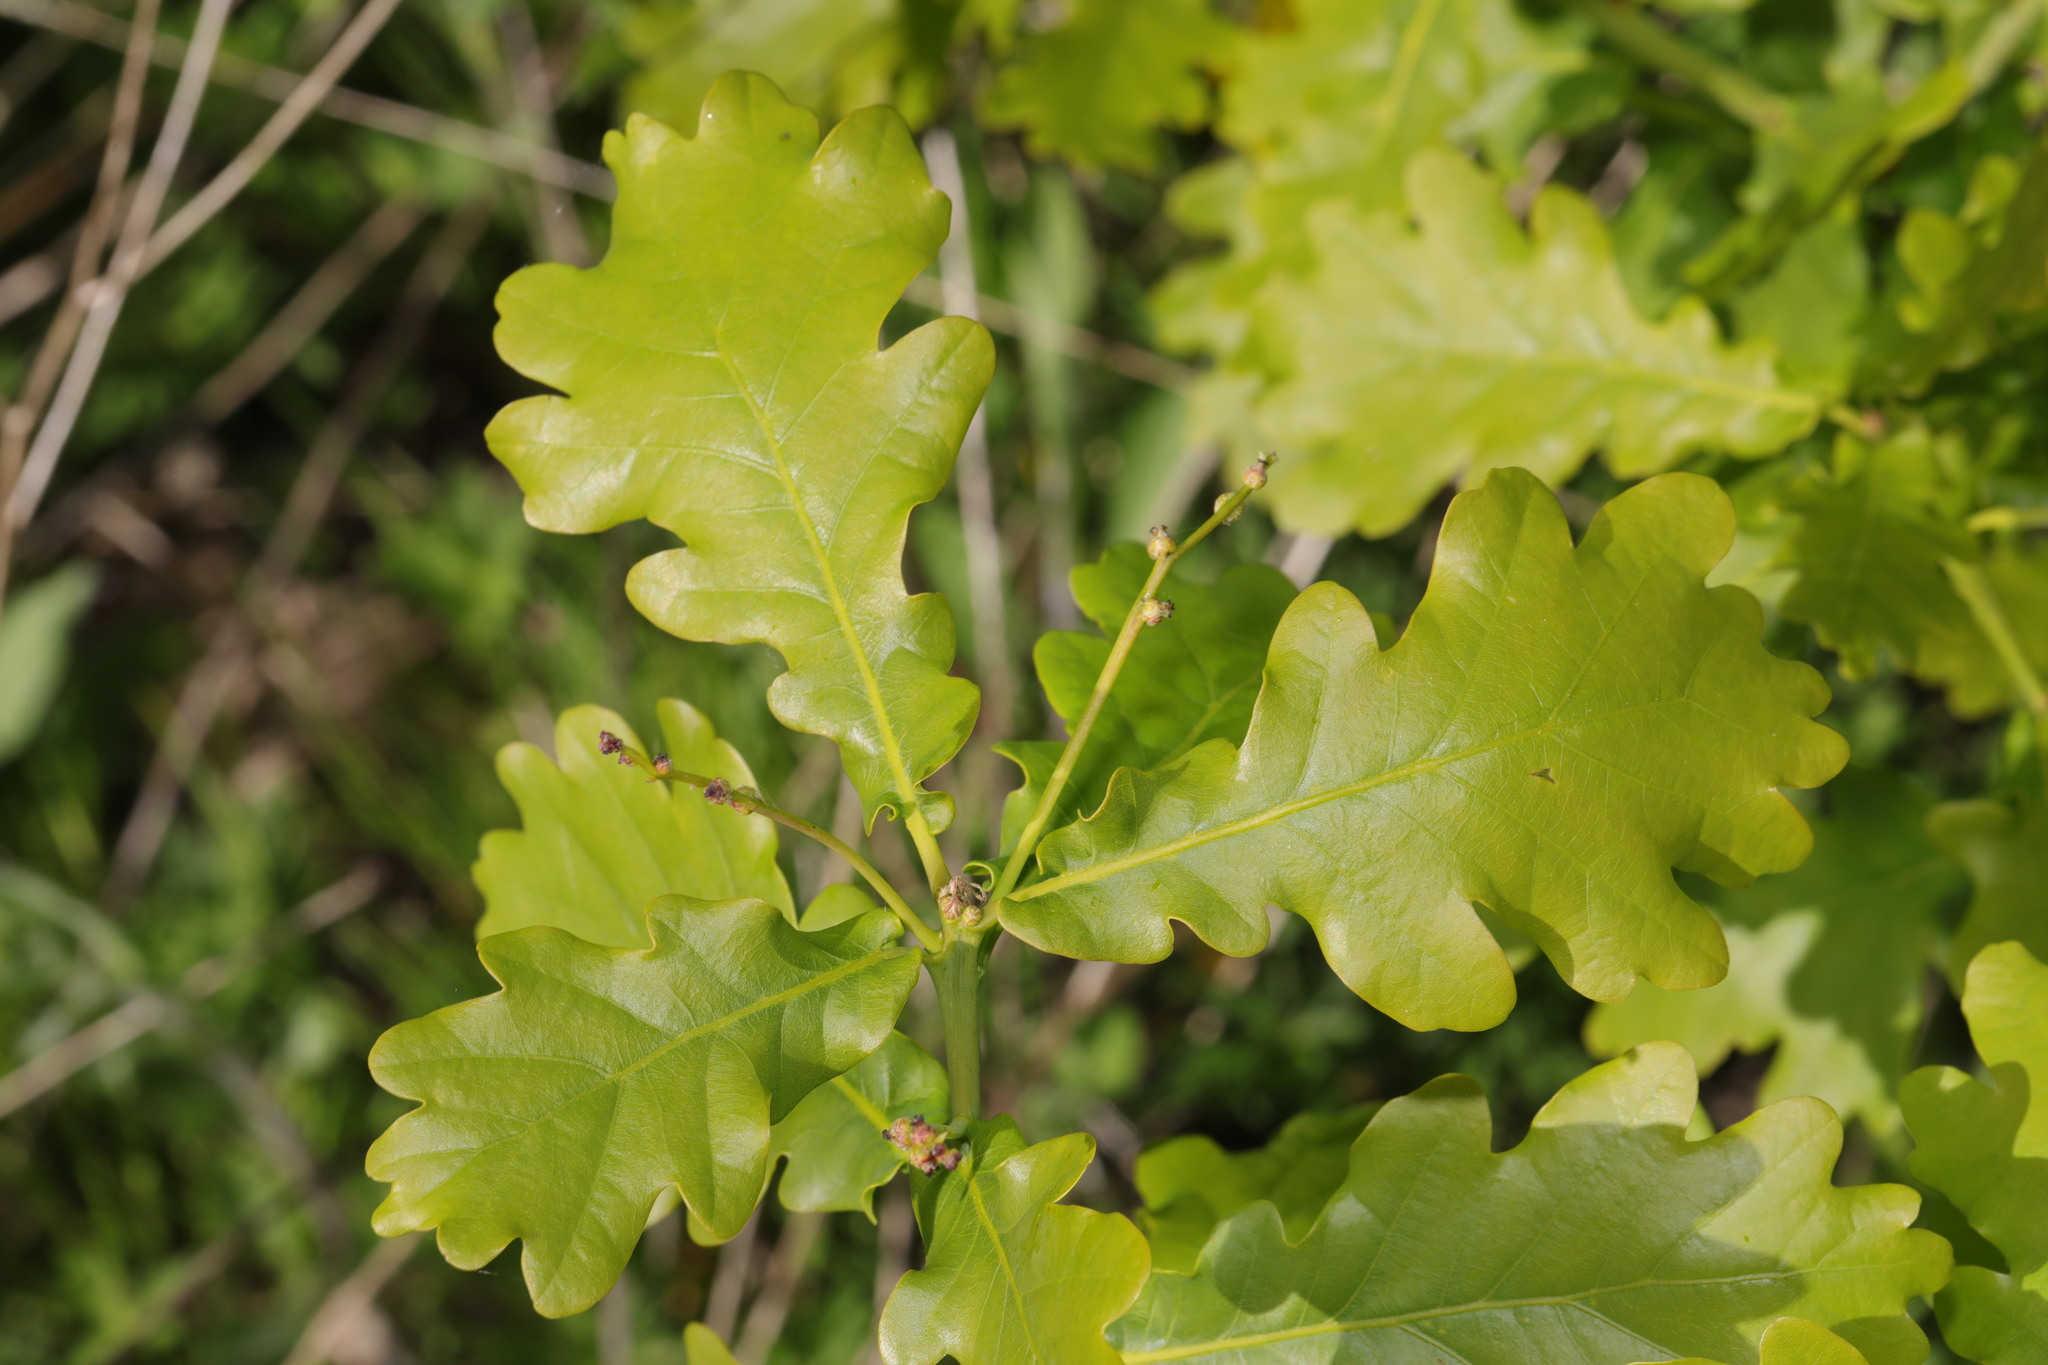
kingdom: Plantae
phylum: Tracheophyta
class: Magnoliopsida
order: Fagales
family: Fagaceae
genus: Quercus
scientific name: Quercus robur
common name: Pedunculate oak
